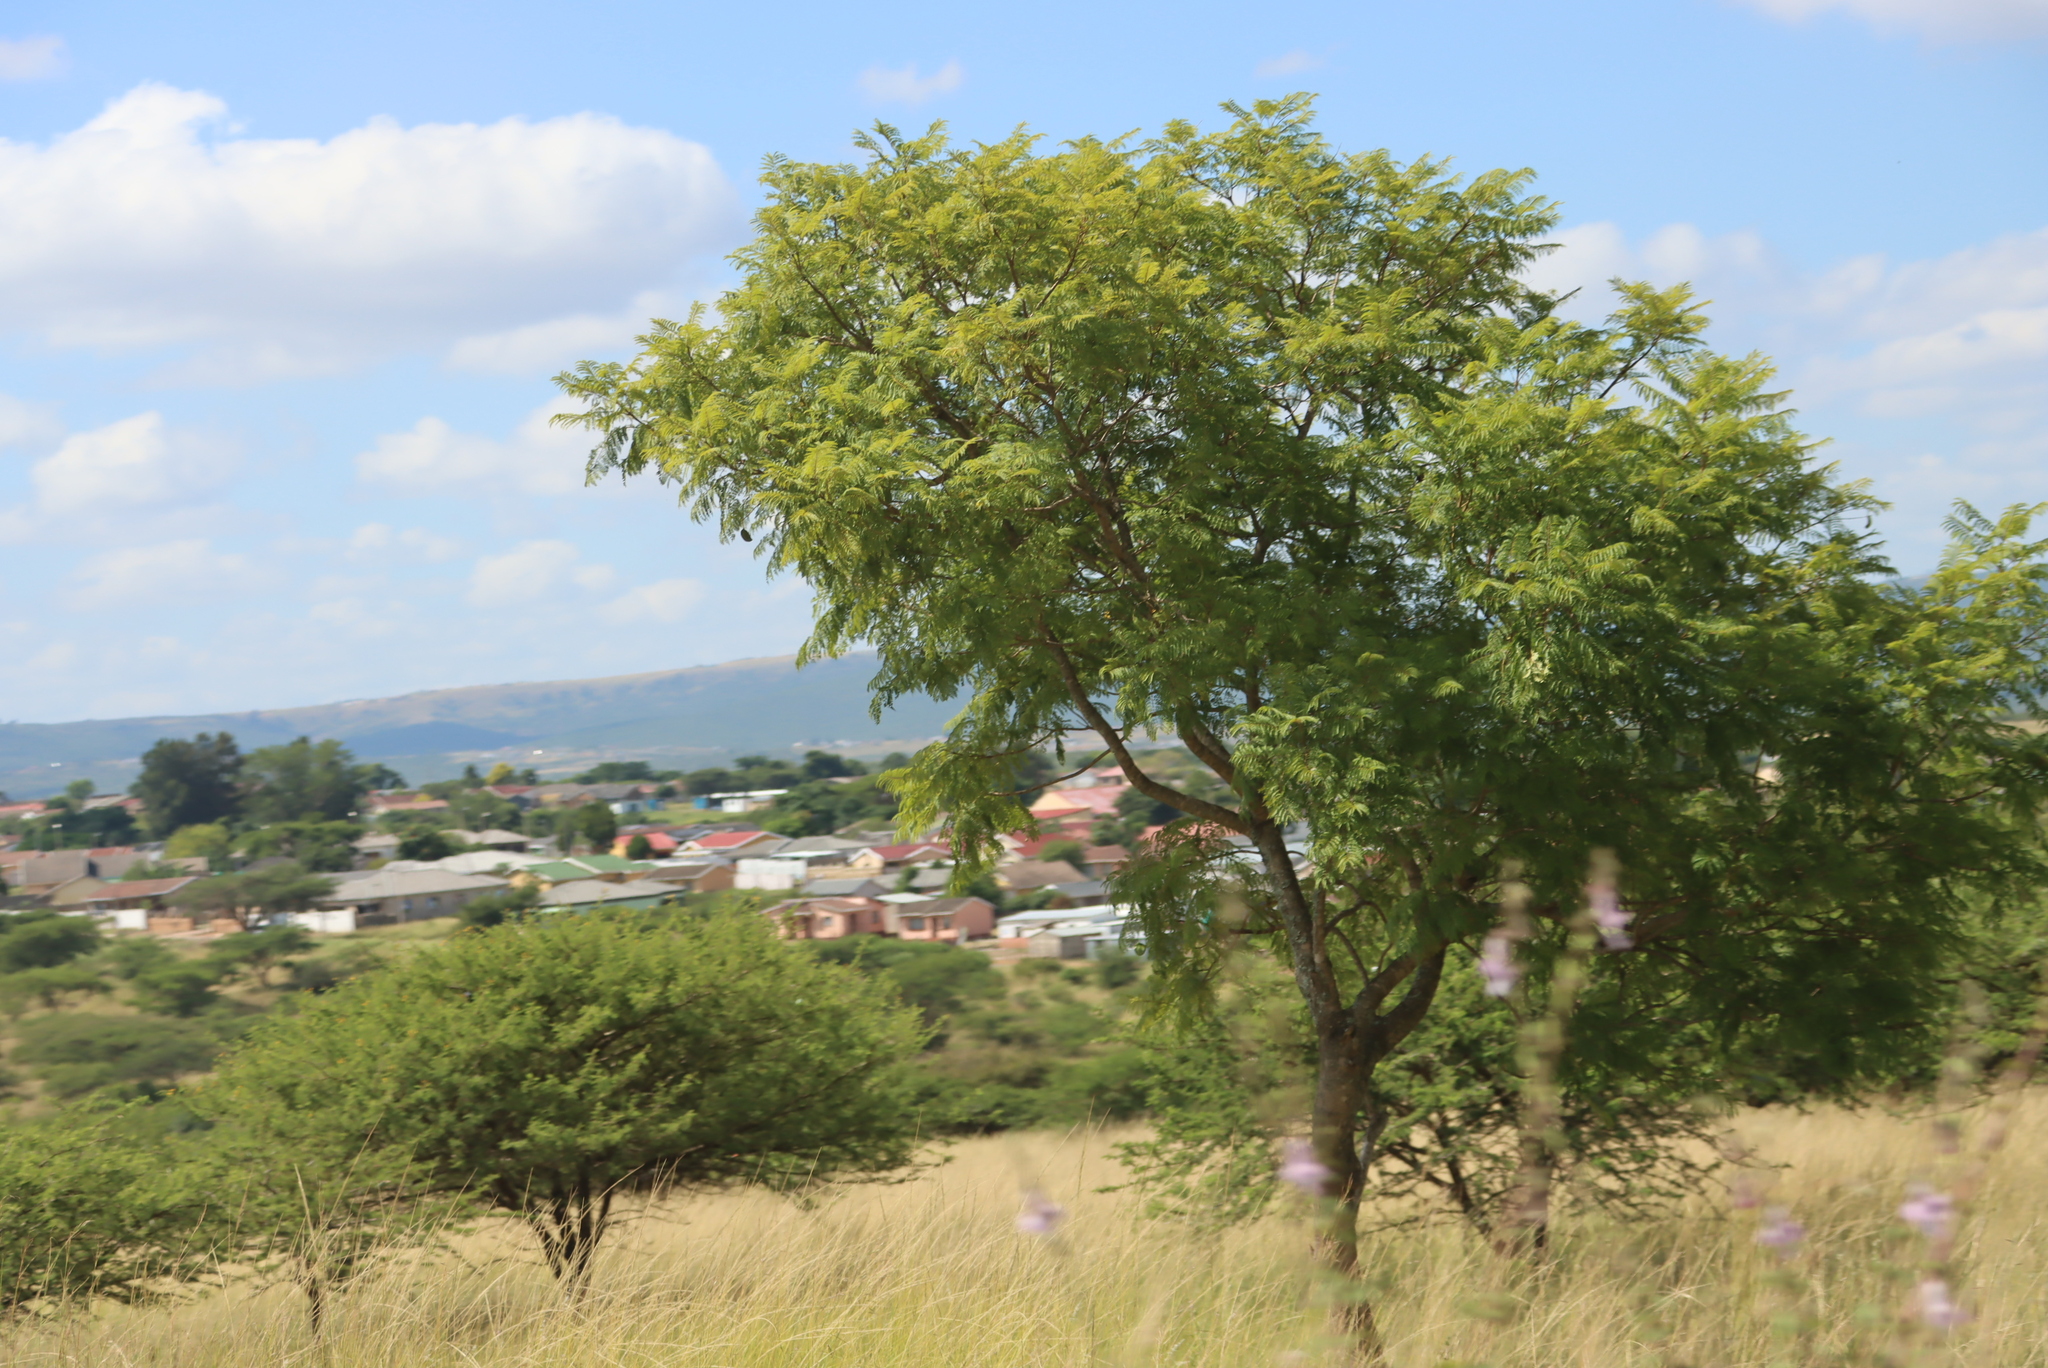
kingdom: Plantae
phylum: Tracheophyta
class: Magnoliopsida
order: Lamiales
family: Bignoniaceae
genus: Jacaranda
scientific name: Jacaranda mimosifolia
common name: Black poui
